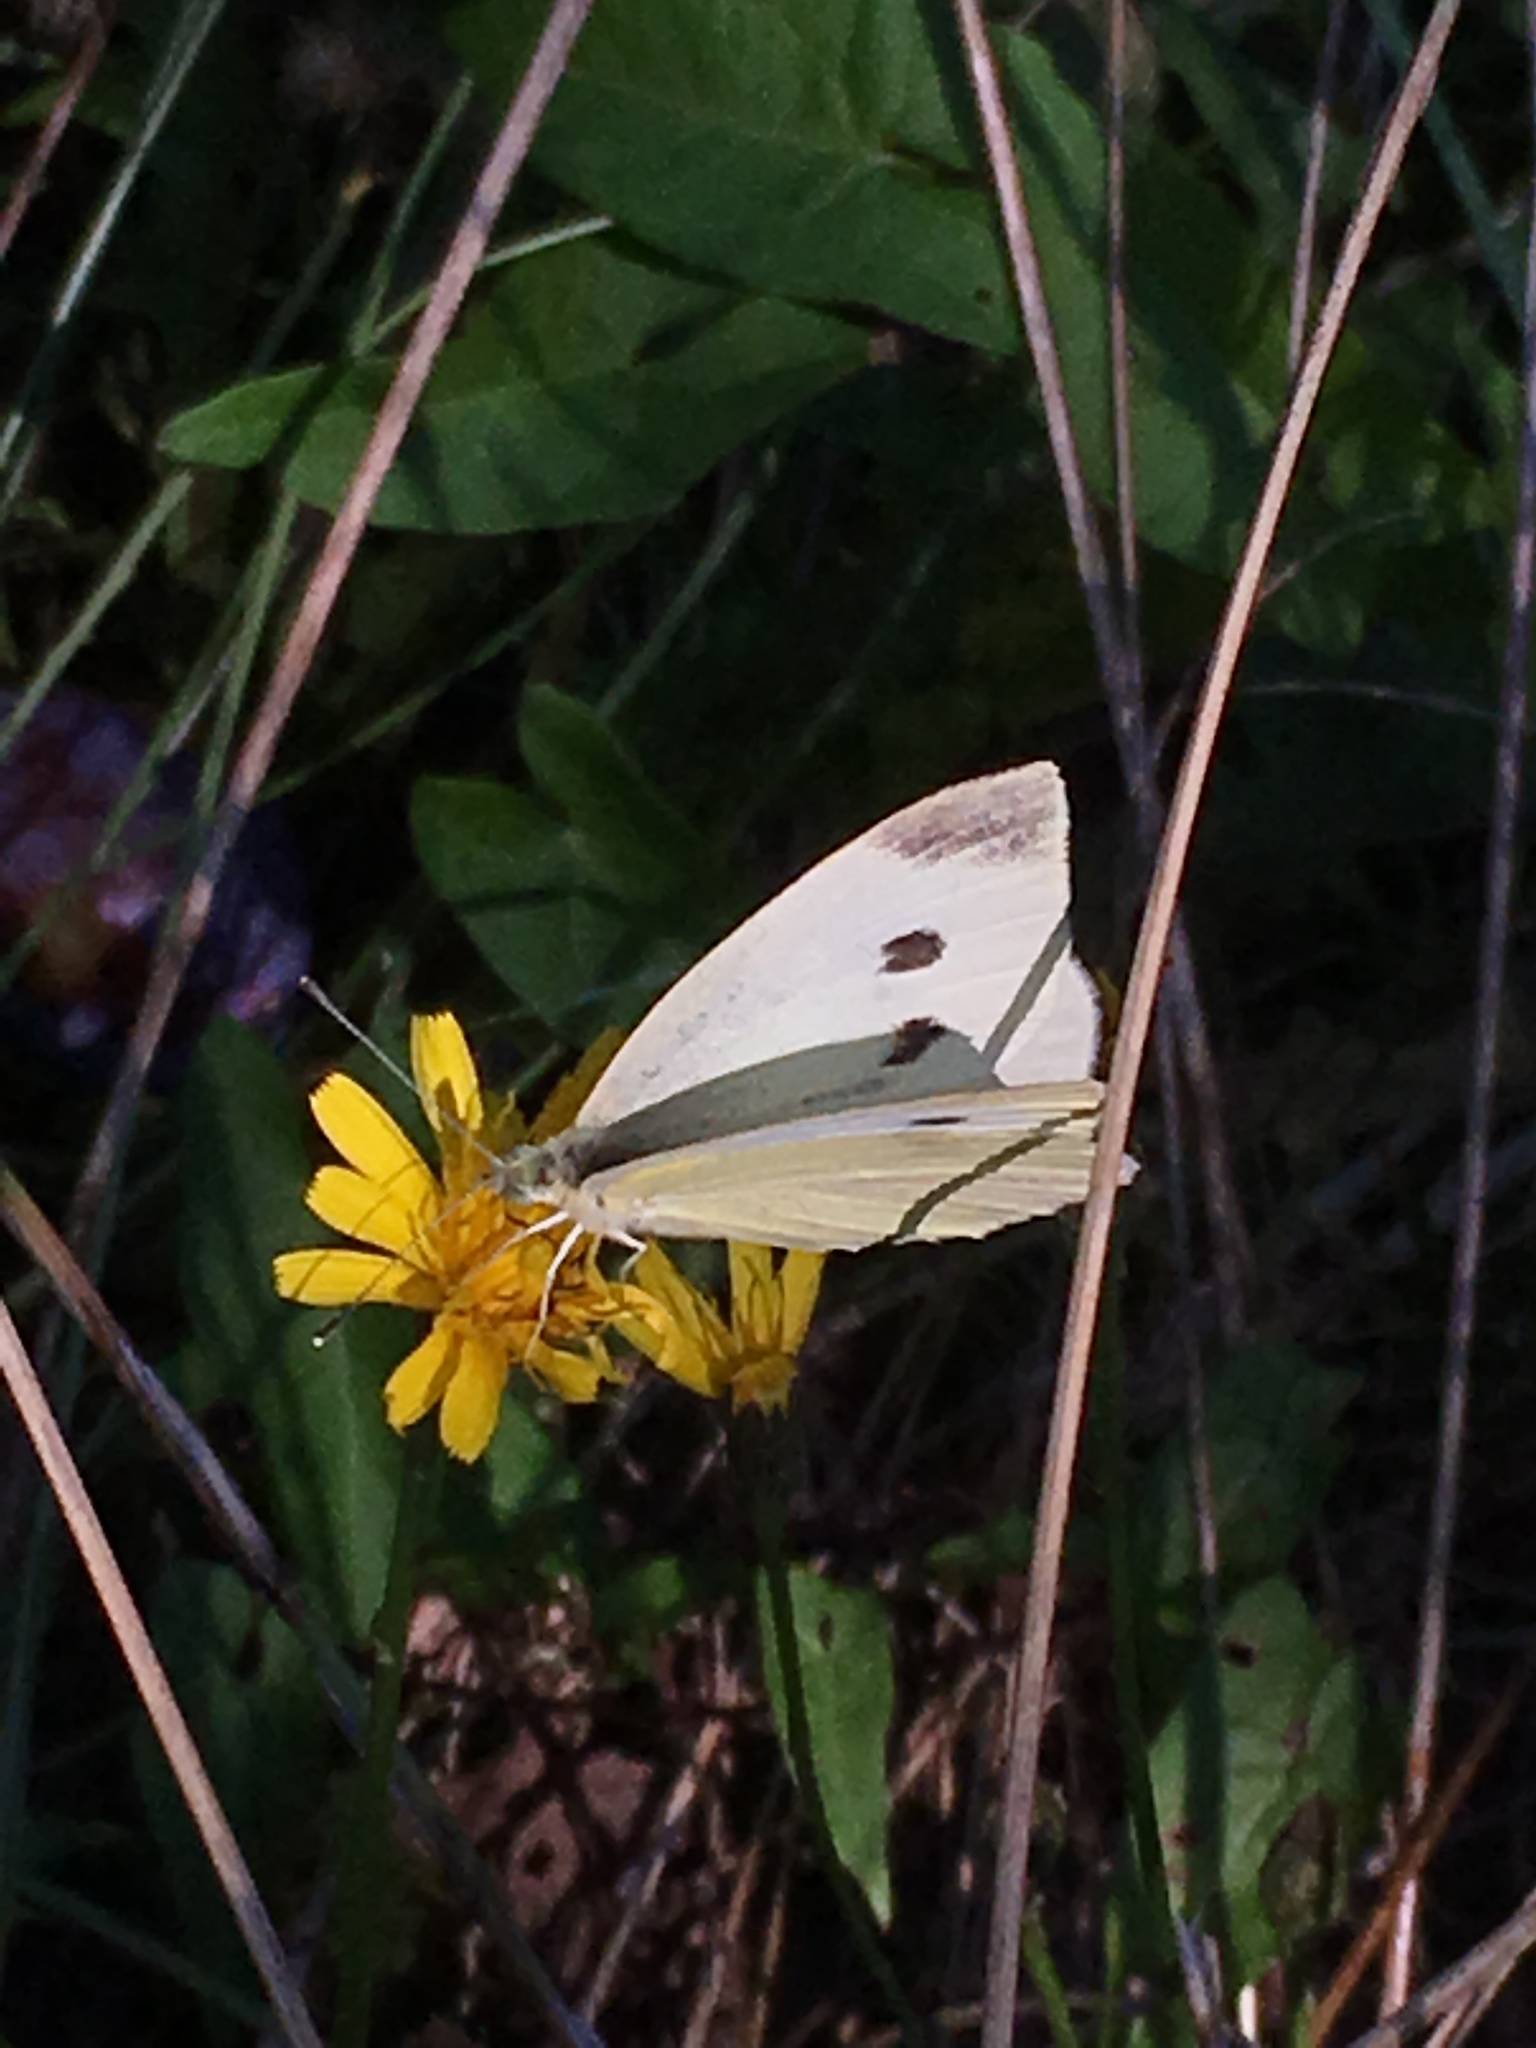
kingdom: Animalia
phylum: Arthropoda
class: Insecta
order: Lepidoptera
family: Pieridae
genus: Pieris
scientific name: Pieris rapae
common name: Small white
